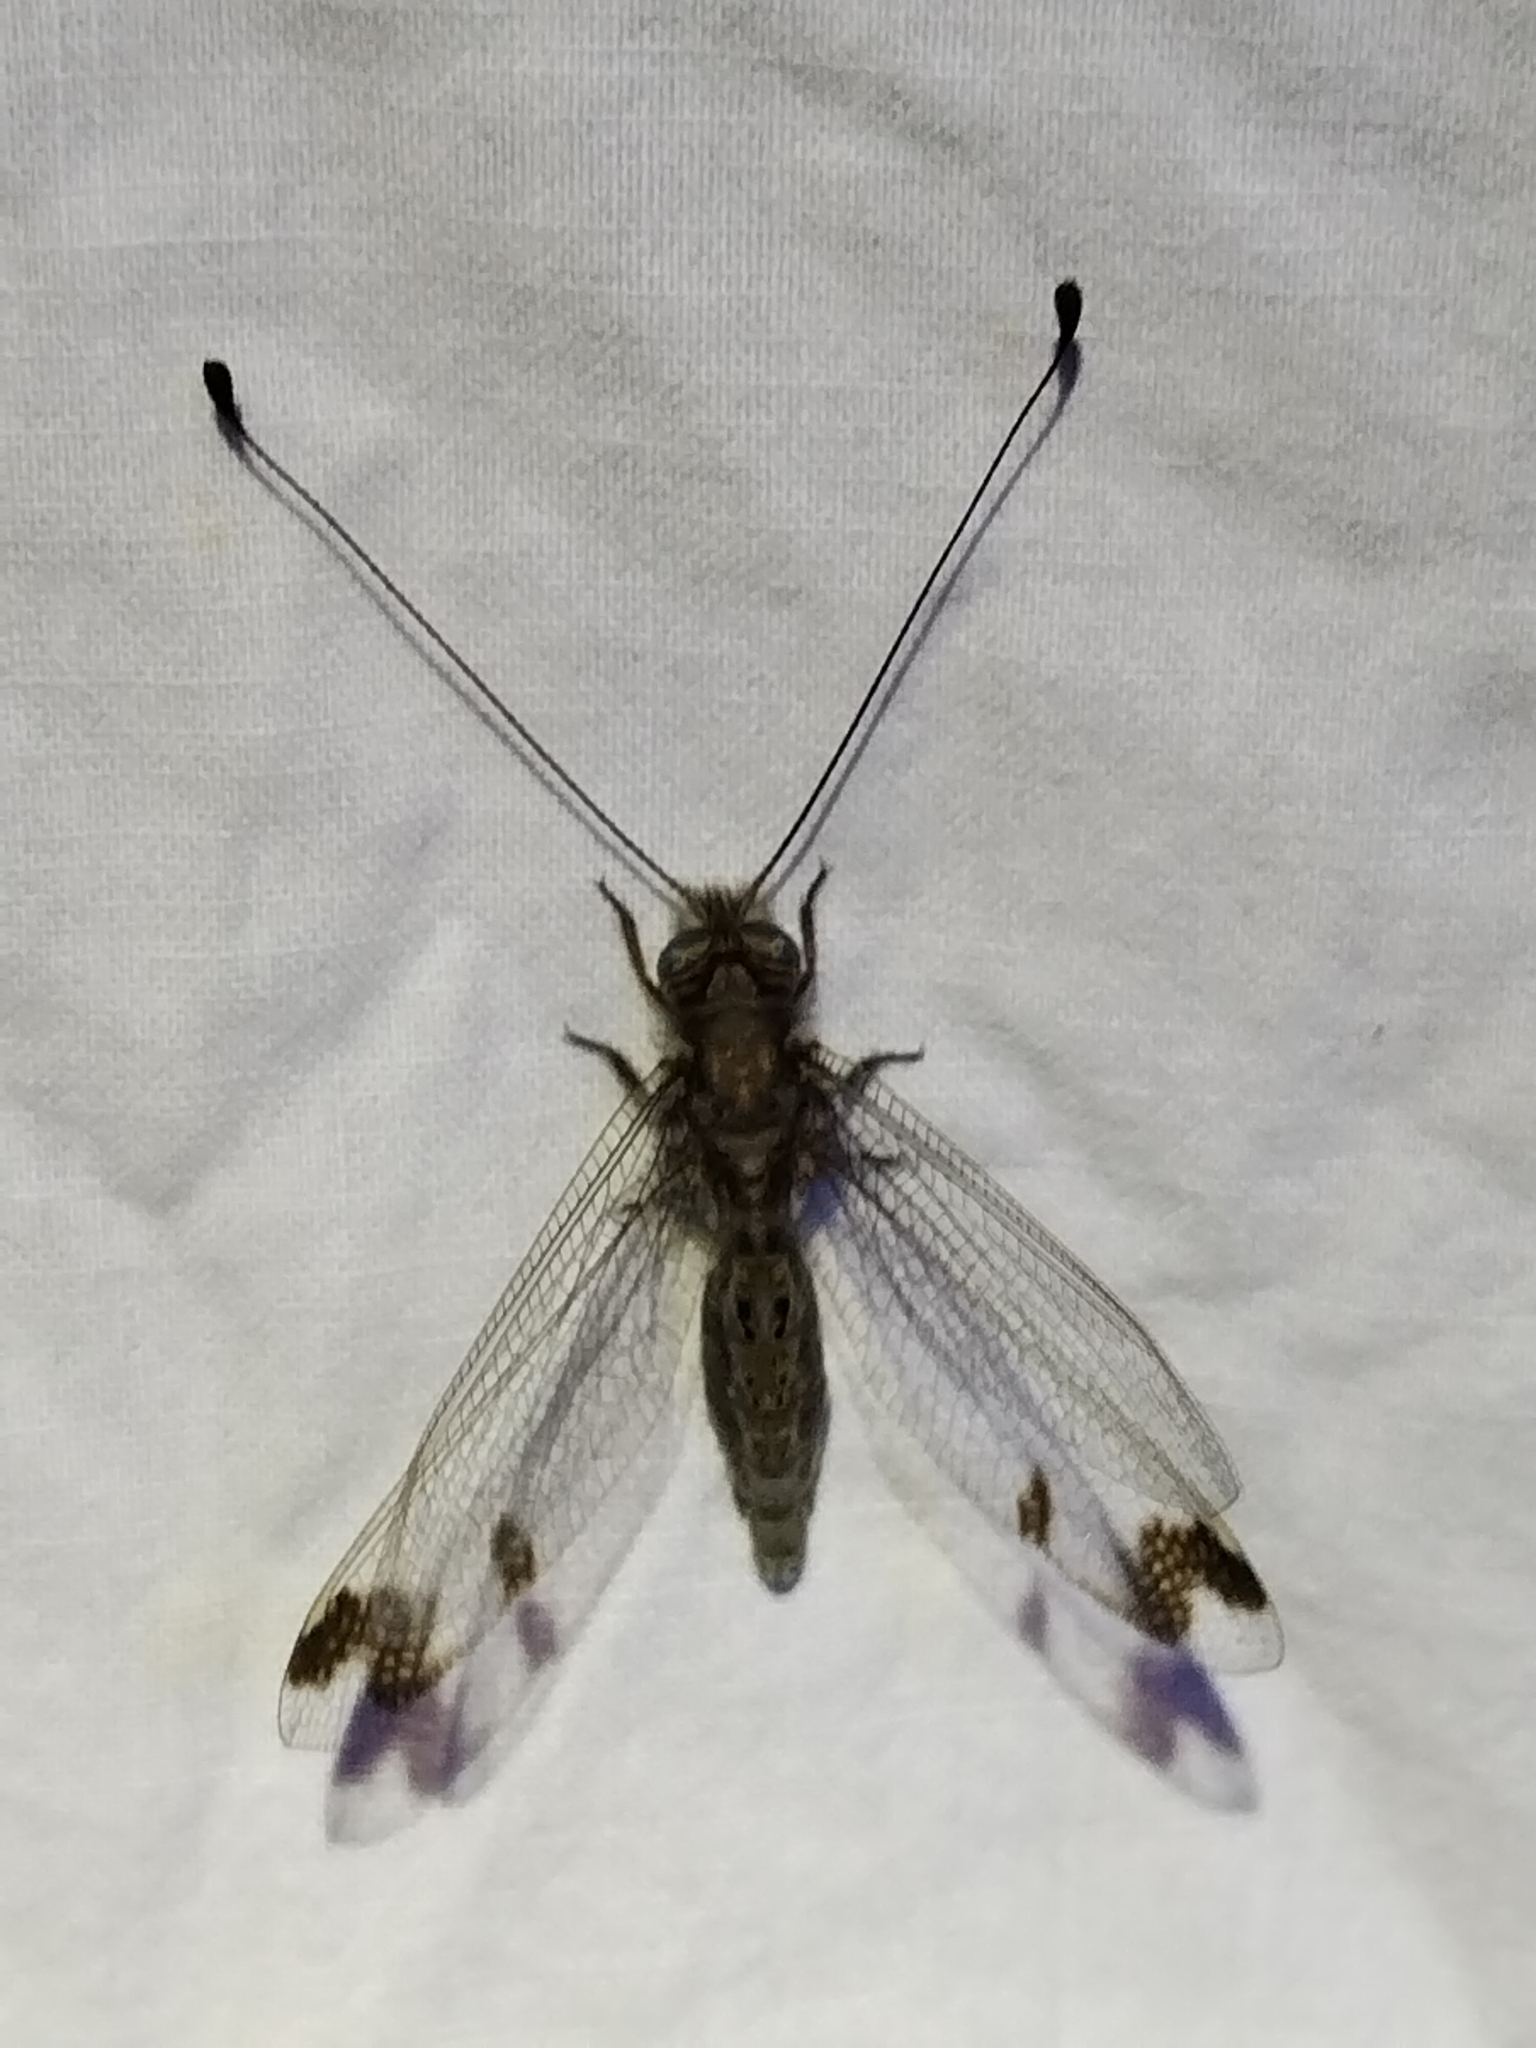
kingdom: Animalia
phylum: Arthropoda
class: Insecta
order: Neuroptera
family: Ascalaphidae
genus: Ululodes
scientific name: Ululodes quadripunctatus
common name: Four-spotted owlfly
